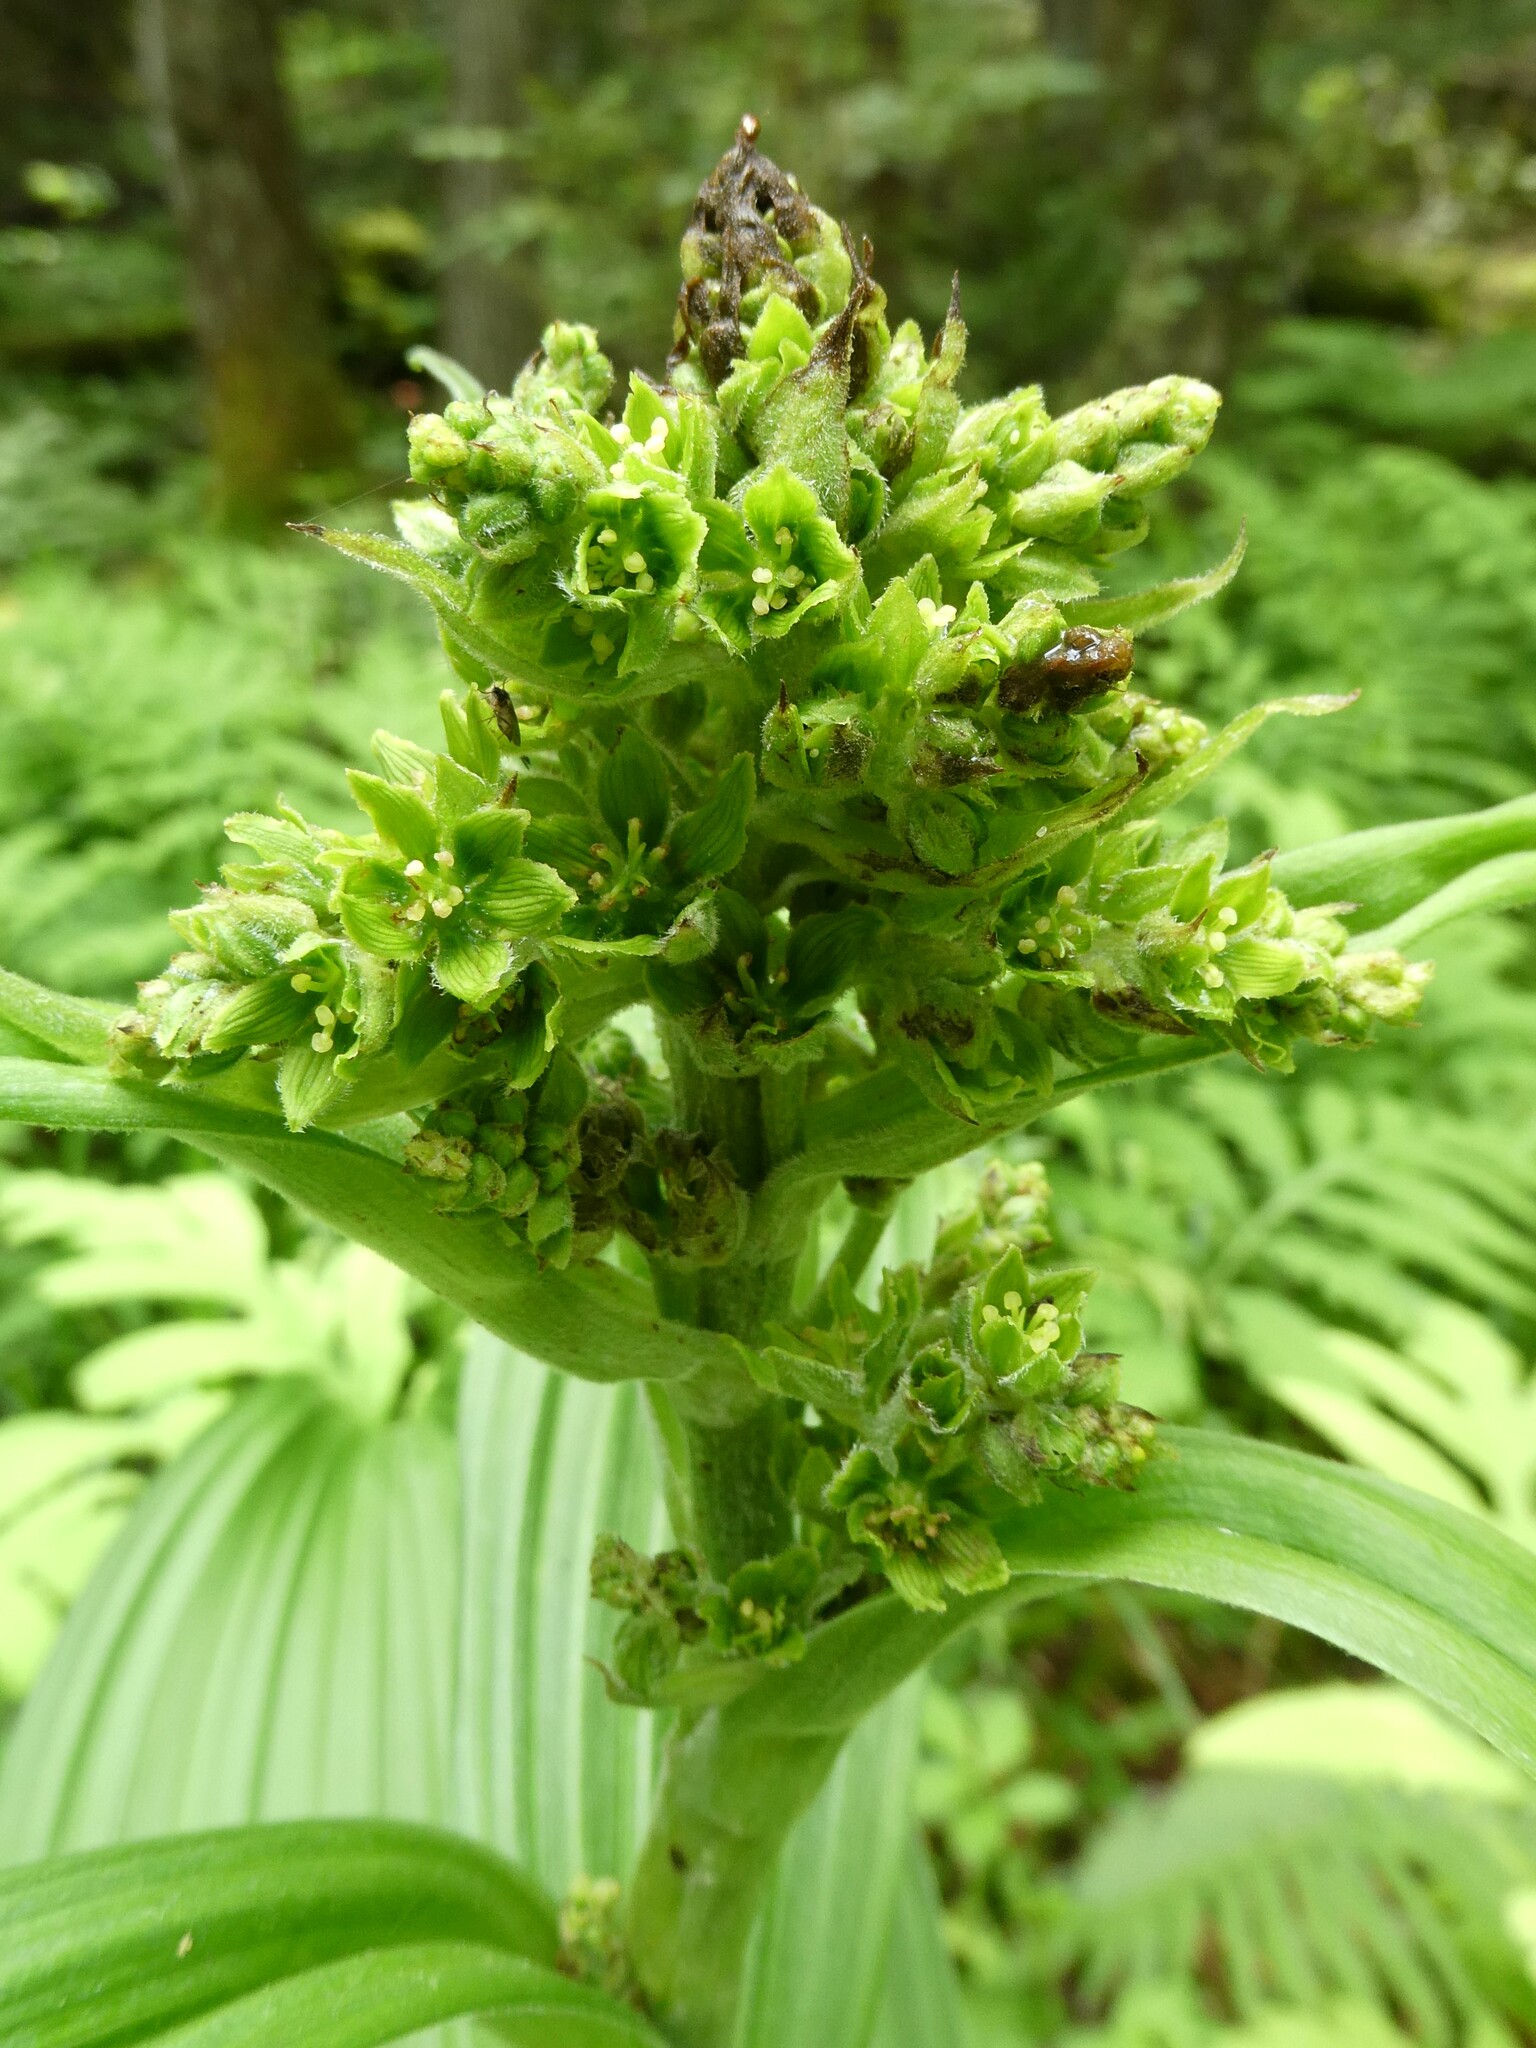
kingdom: Plantae
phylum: Tracheophyta
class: Liliopsida
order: Liliales
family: Melanthiaceae
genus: Veratrum
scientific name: Veratrum viride
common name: American false hellebore
